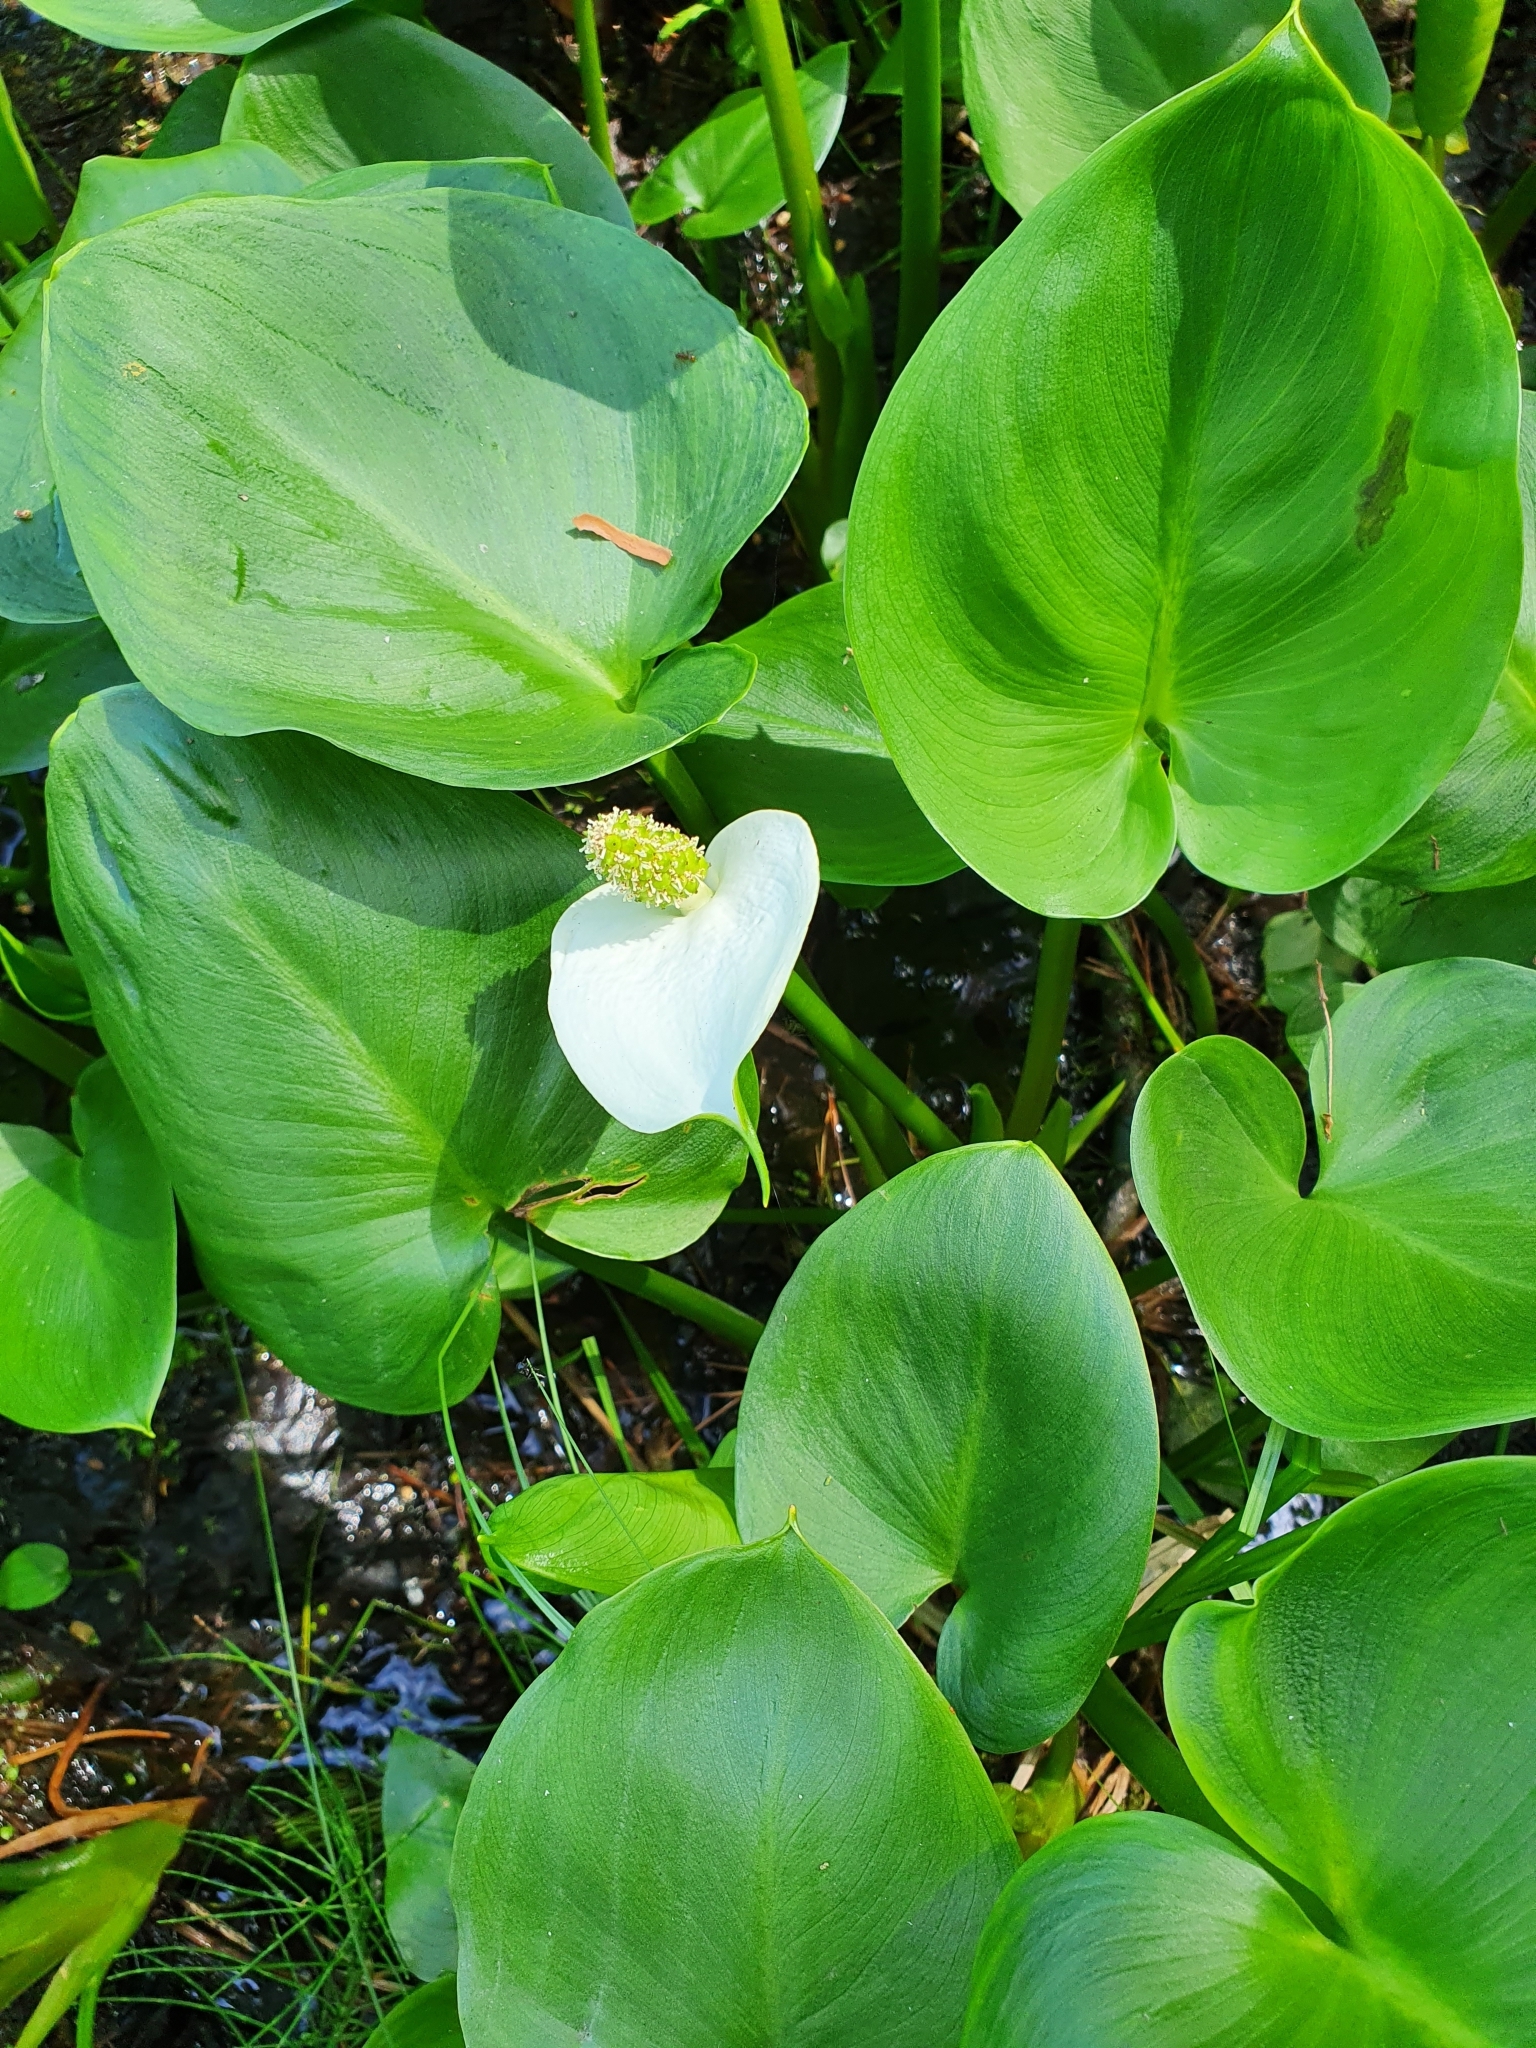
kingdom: Plantae
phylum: Tracheophyta
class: Liliopsida
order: Alismatales
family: Araceae
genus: Calla
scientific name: Calla palustris
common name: Bog arum
